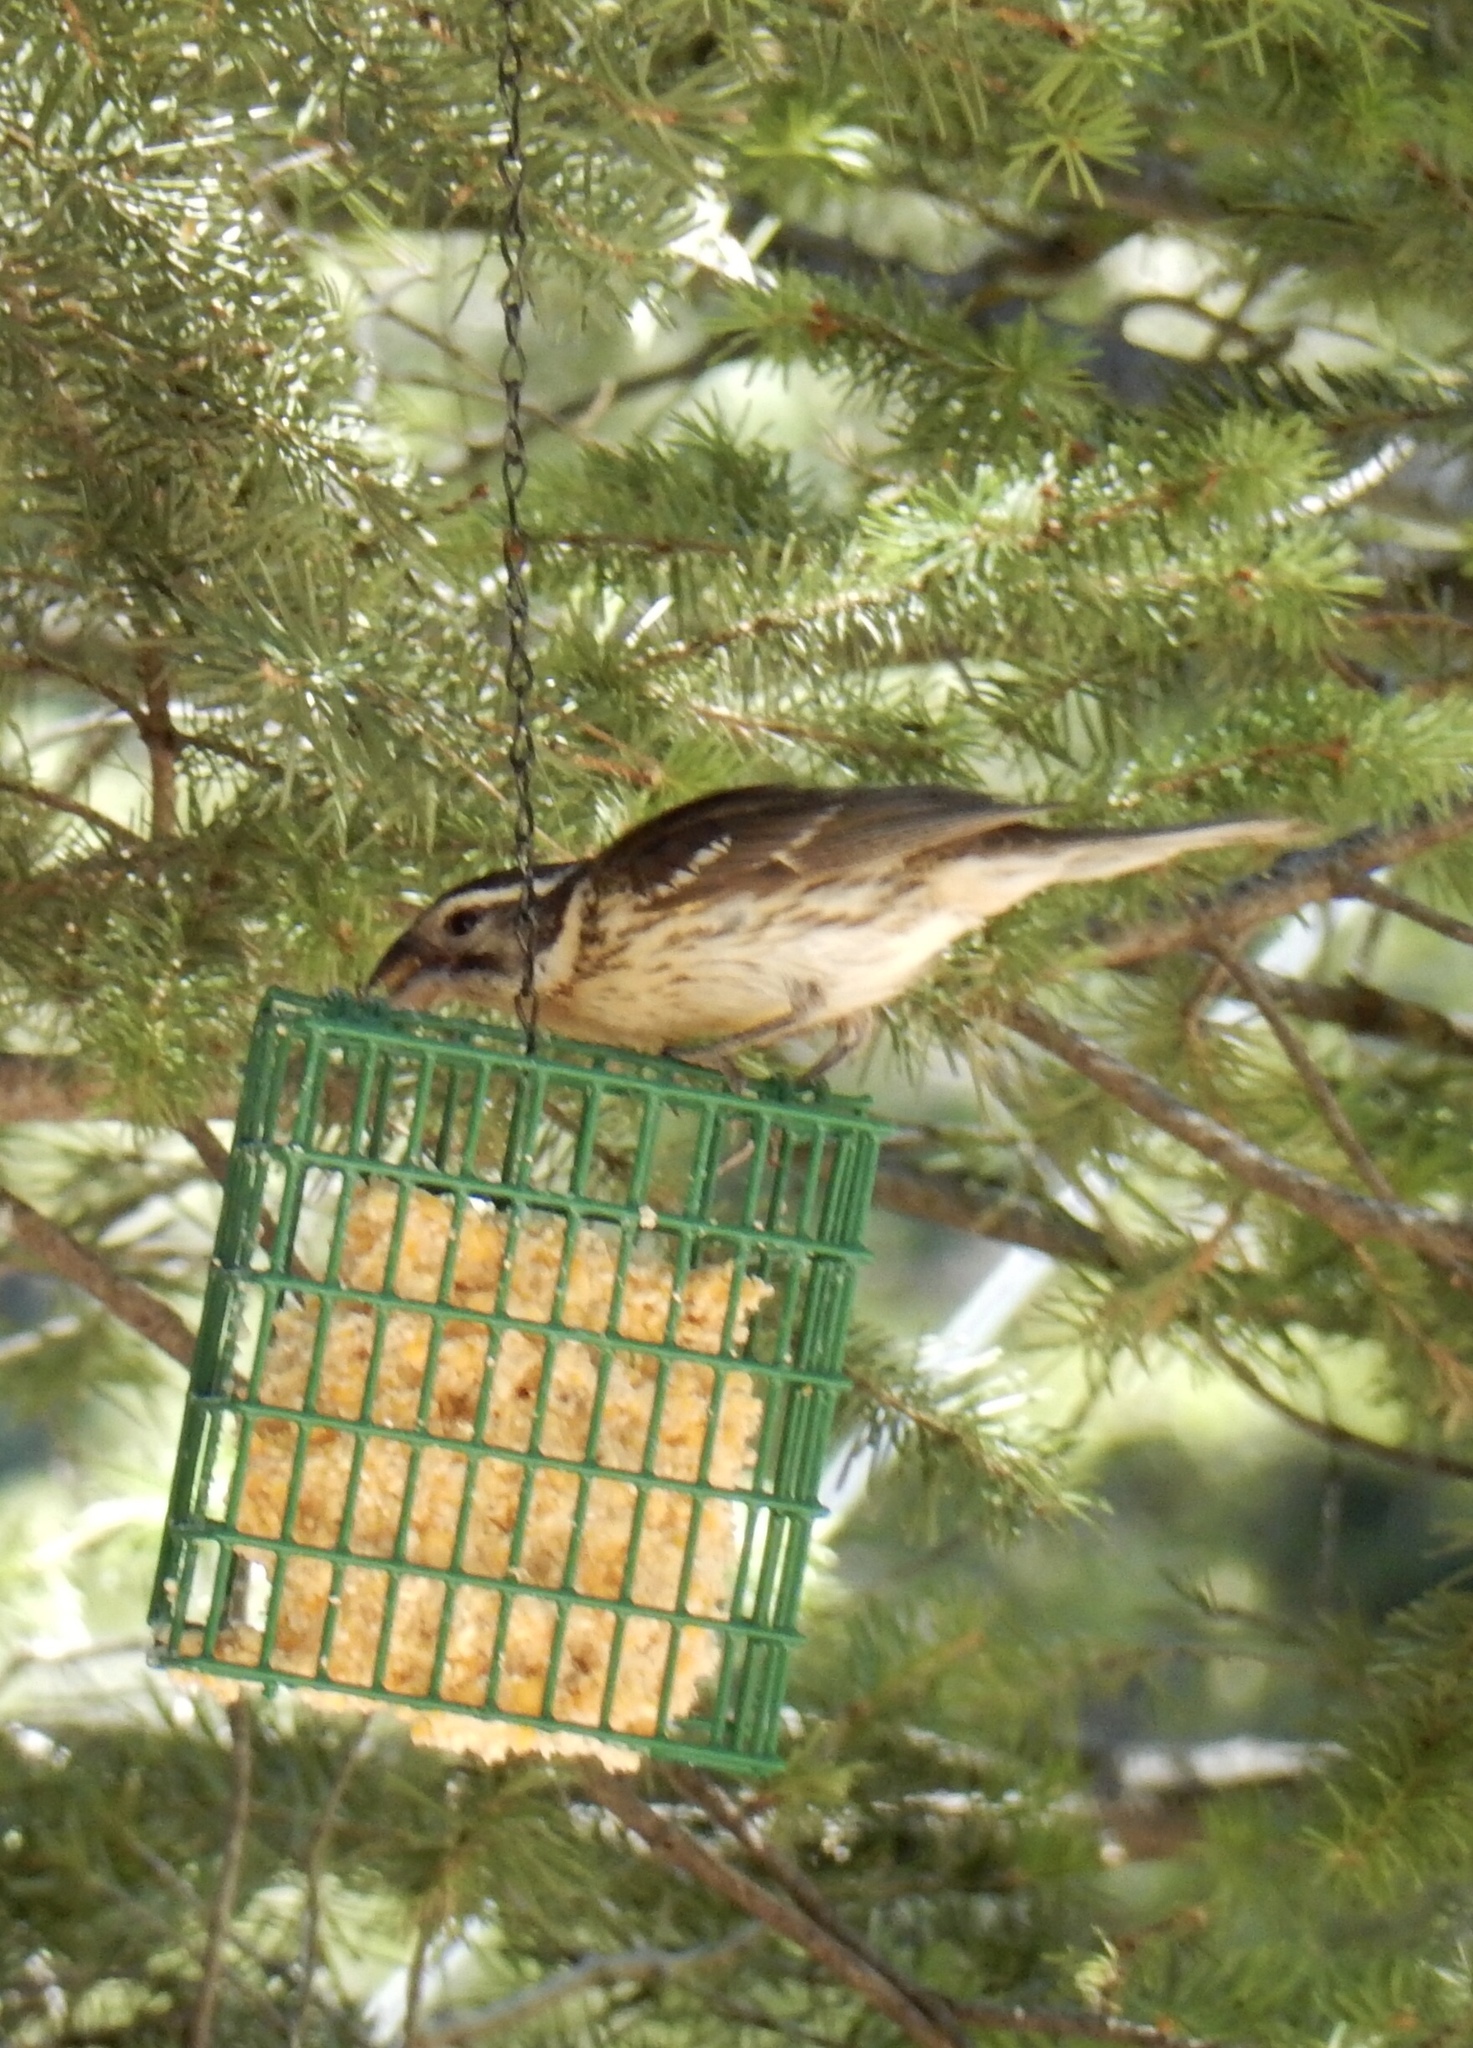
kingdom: Animalia
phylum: Chordata
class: Aves
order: Passeriformes
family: Cardinalidae
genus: Pheucticus
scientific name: Pheucticus melanocephalus
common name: Black-headed grosbeak
